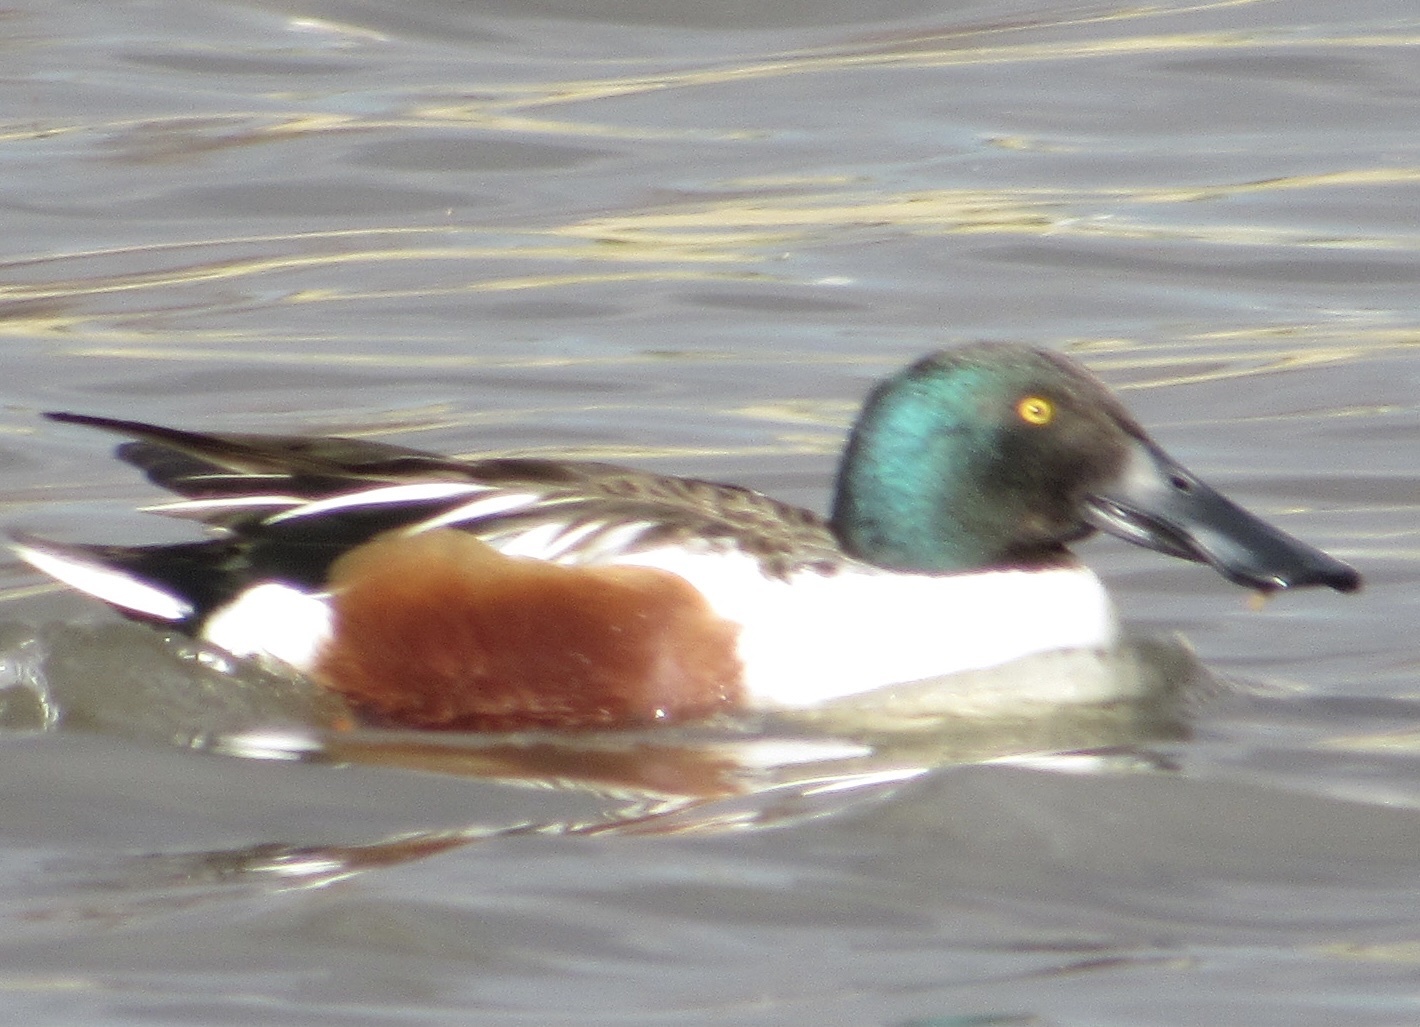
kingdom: Animalia
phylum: Chordata
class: Aves
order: Anseriformes
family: Anatidae
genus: Spatula
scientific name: Spatula clypeata
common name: Northern shoveler
